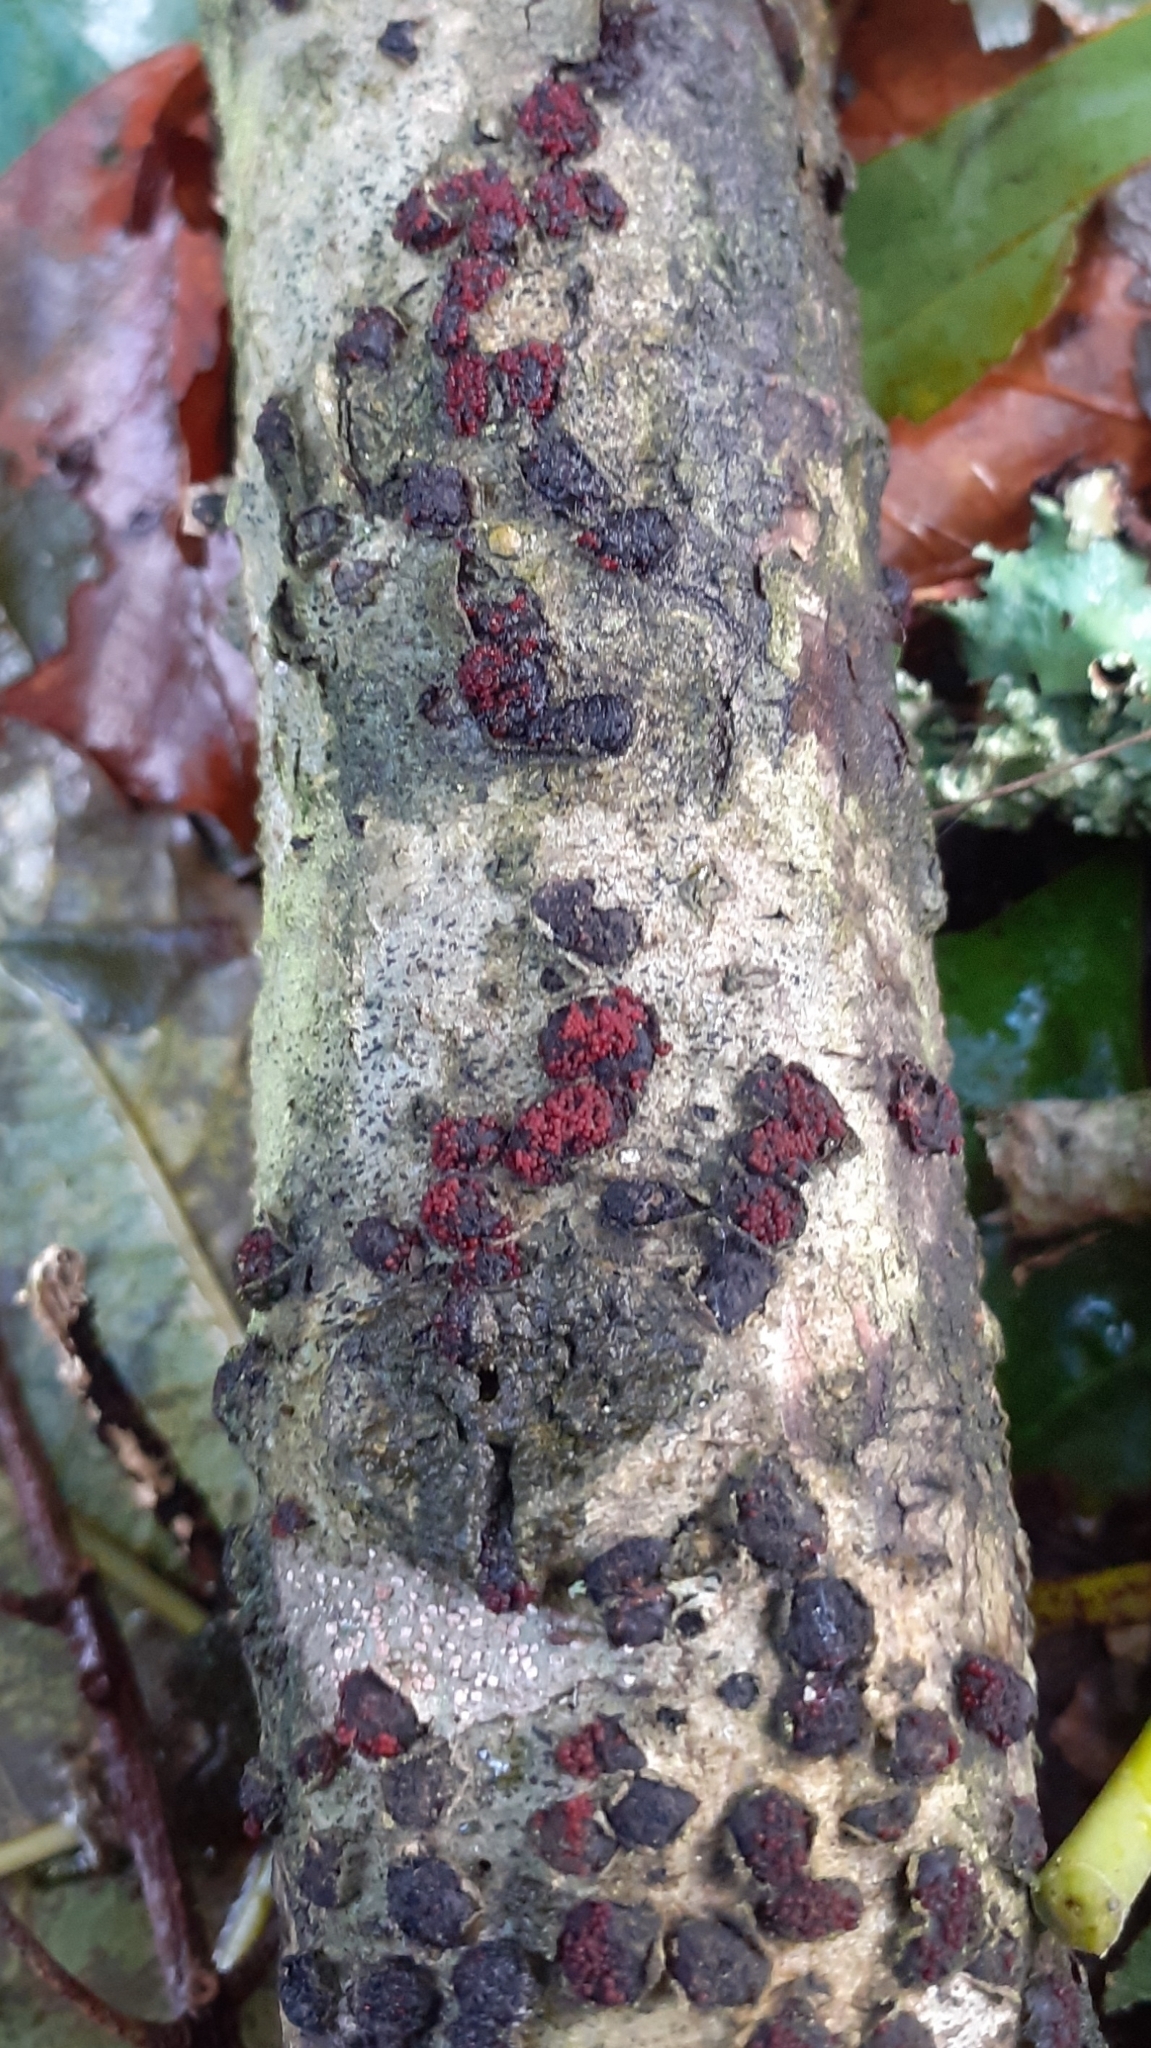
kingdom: Fungi
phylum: Ascomycota
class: Sordariomycetes
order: Hypocreales
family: Nectriaceae
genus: Dialonectria
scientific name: Dialonectria diatrypellicola
